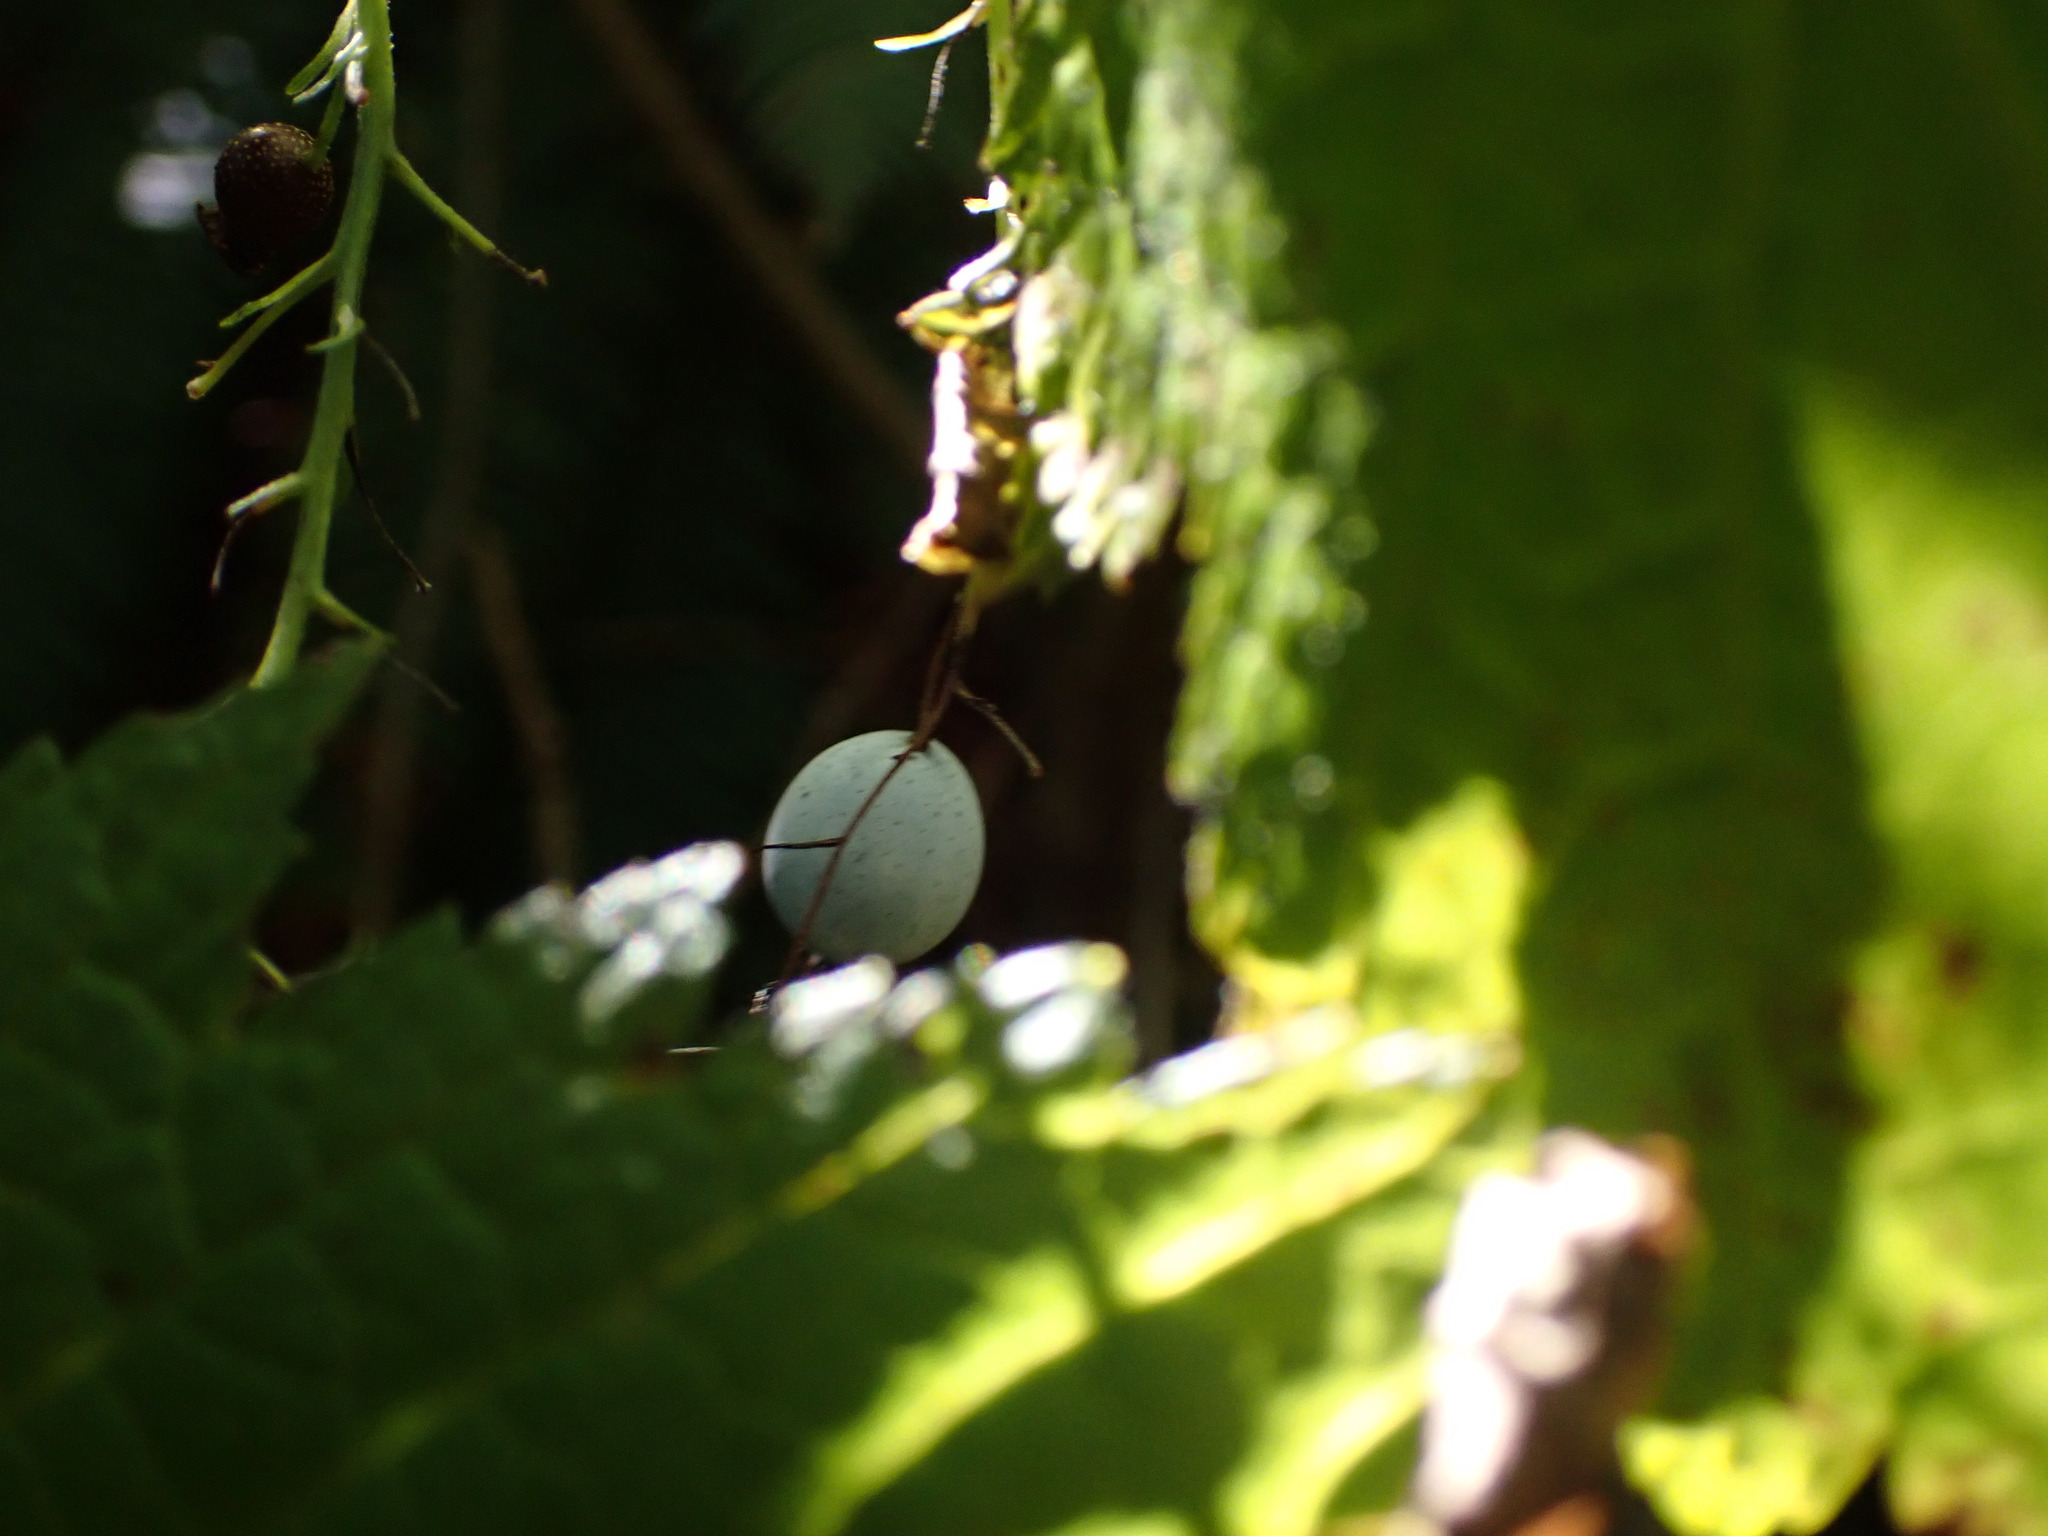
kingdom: Plantae
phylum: Tracheophyta
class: Magnoliopsida
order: Saxifragales
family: Grossulariaceae
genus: Ribes
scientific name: Ribes bracteosum
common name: California black currant
